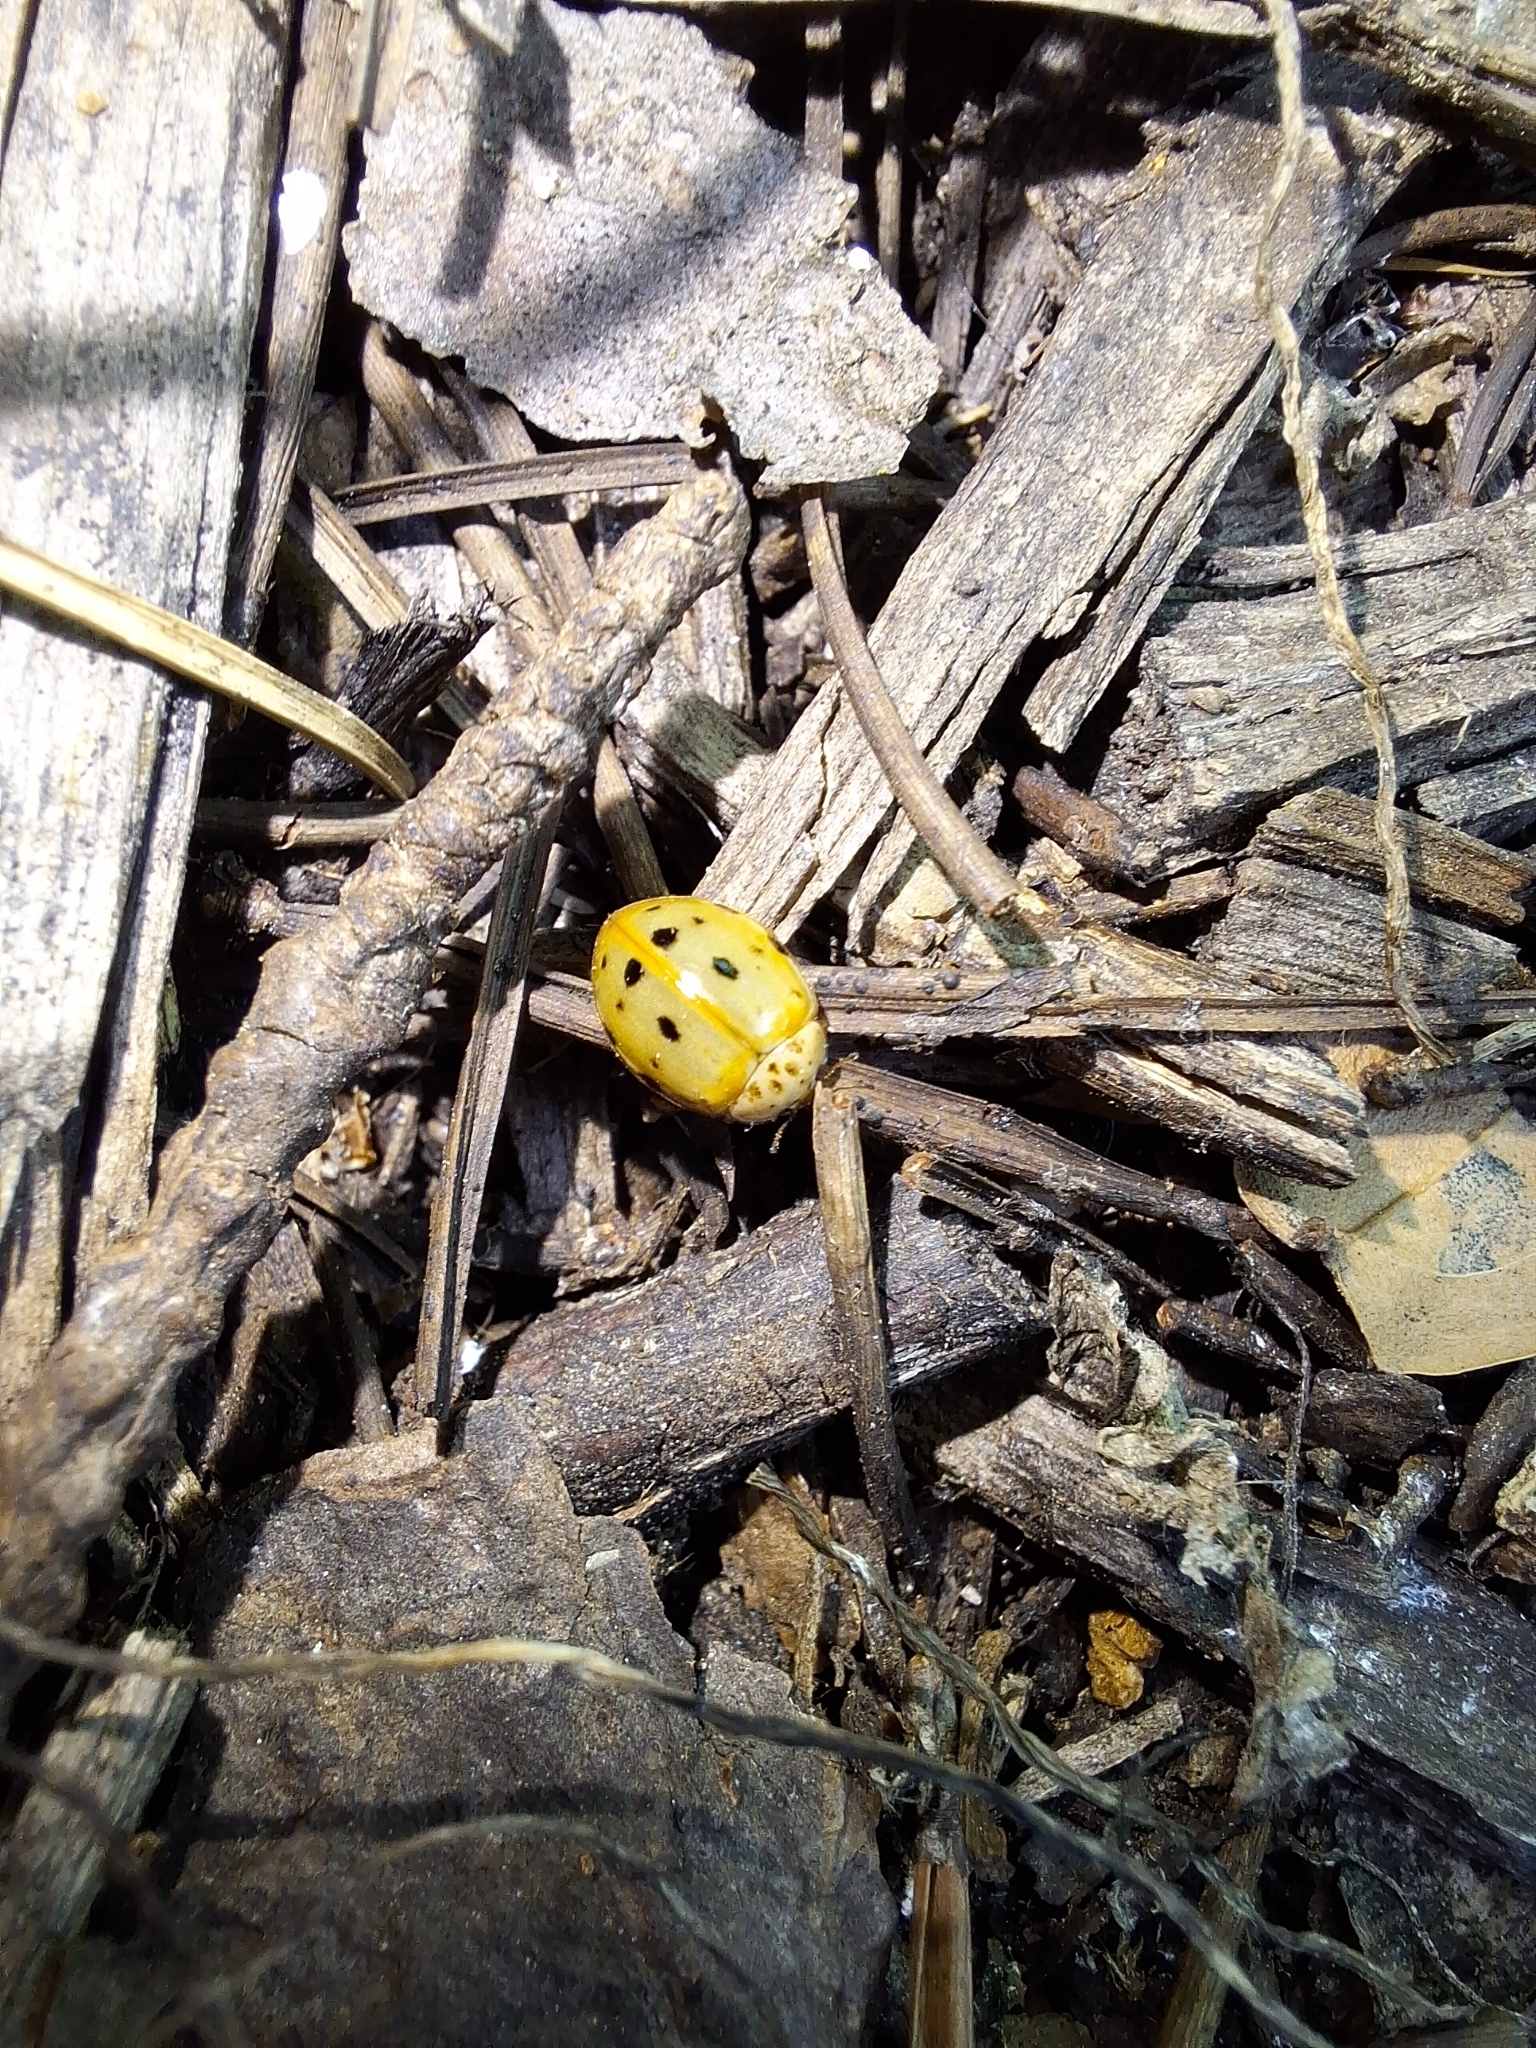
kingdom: Animalia
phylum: Arthropoda
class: Insecta
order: Coleoptera
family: Coccinellidae
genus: Harmonia
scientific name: Harmonia quadripunctata
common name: Cream-streaked ladybird
